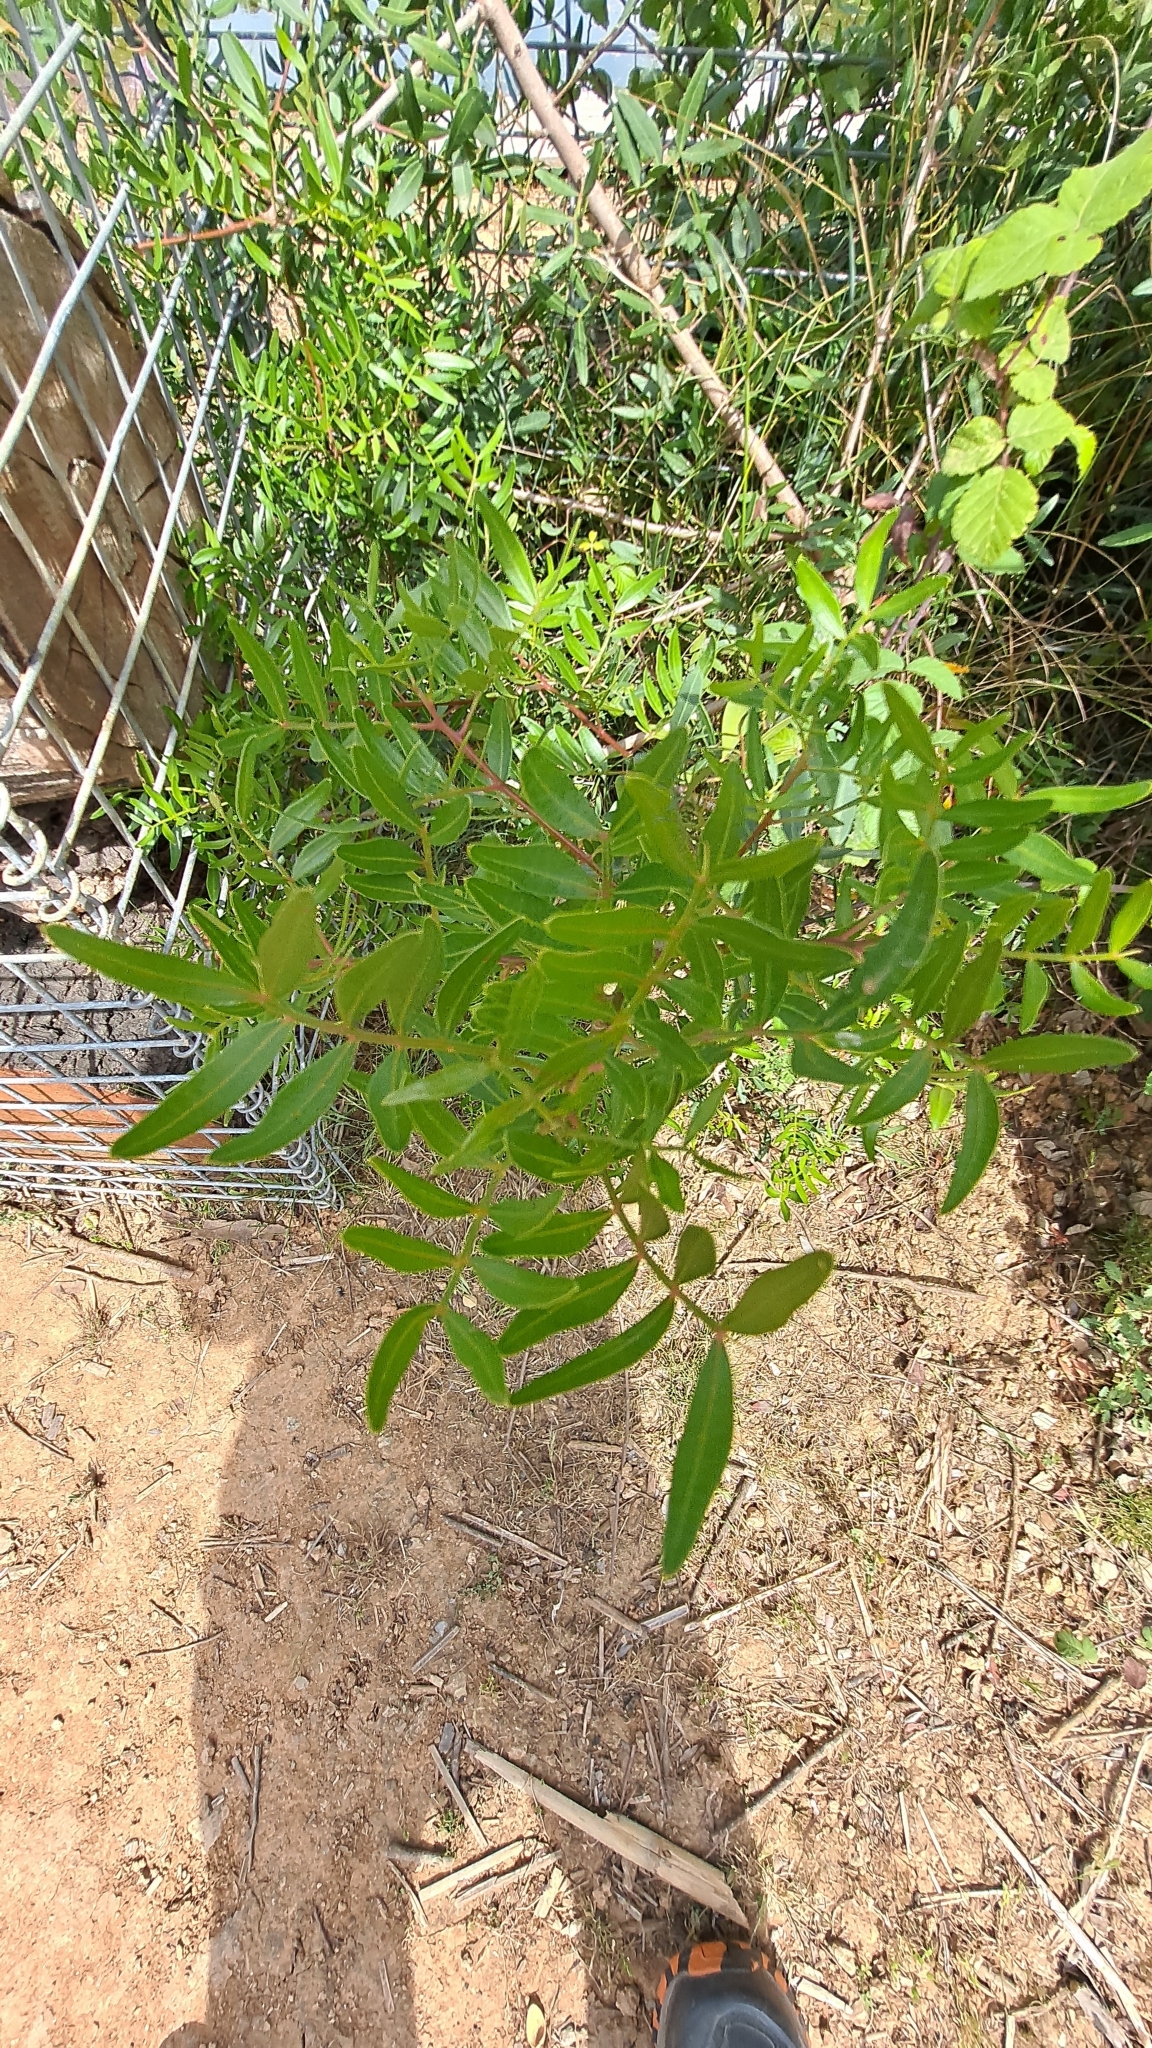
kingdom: Plantae
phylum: Tracheophyta
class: Magnoliopsida
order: Sapindales
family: Anacardiaceae
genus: Pistacia
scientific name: Pistacia lentiscus
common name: Lentisk
